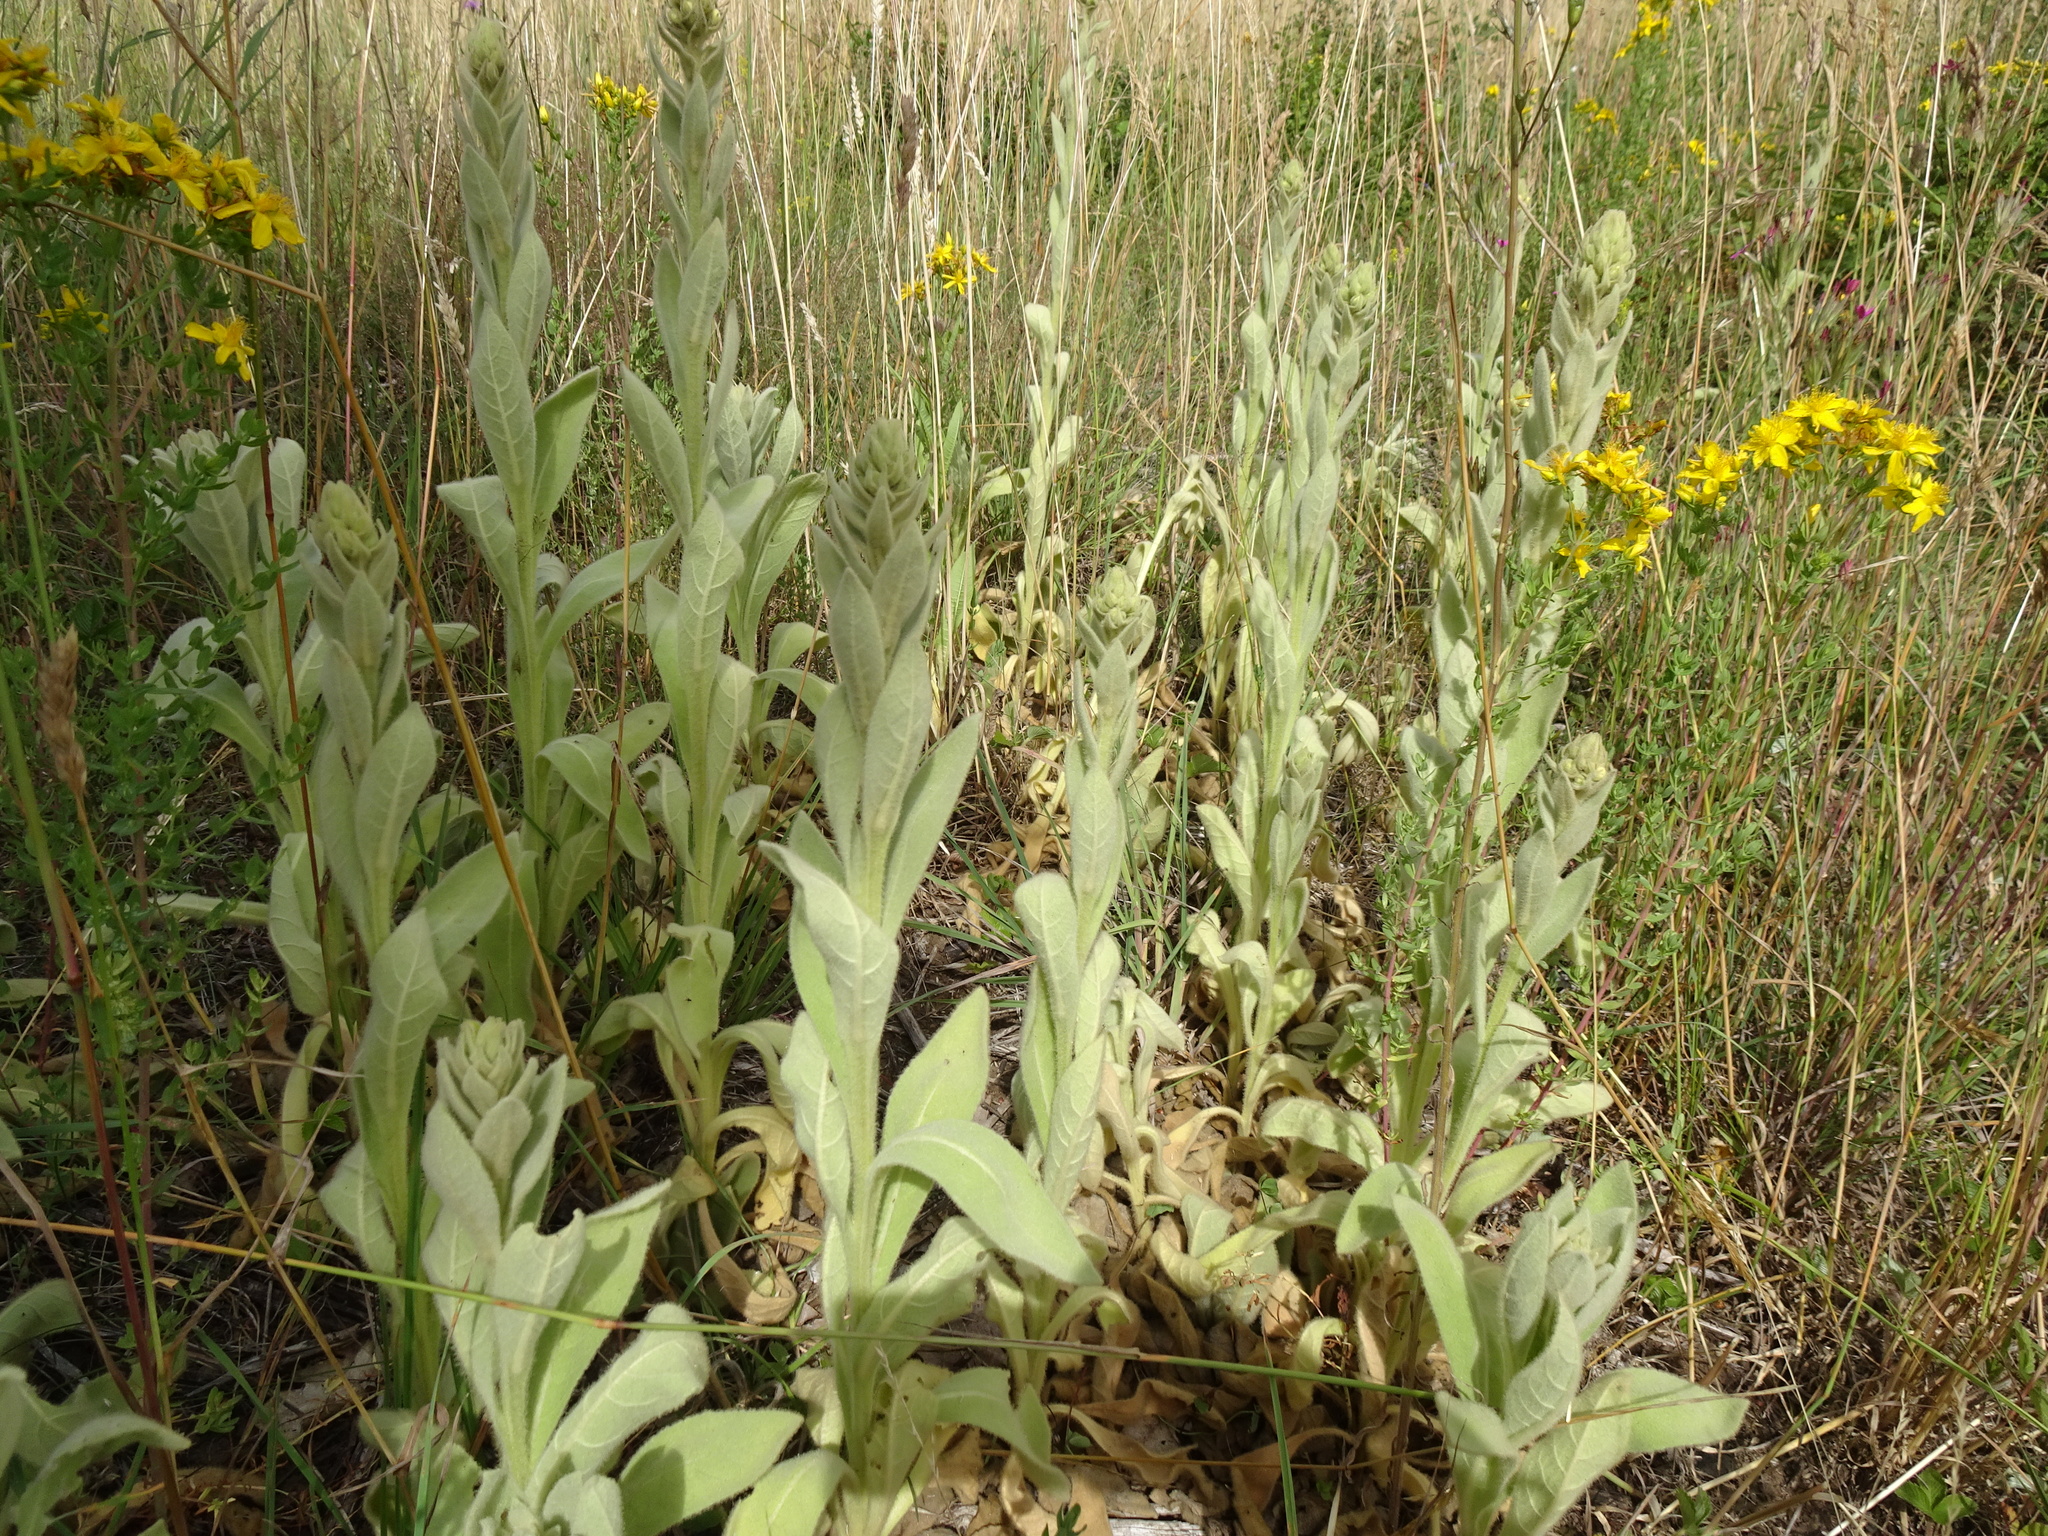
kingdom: Plantae
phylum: Tracheophyta
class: Magnoliopsida
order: Lamiales
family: Scrophulariaceae
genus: Verbascum
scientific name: Verbascum thapsus
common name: Common mullein
